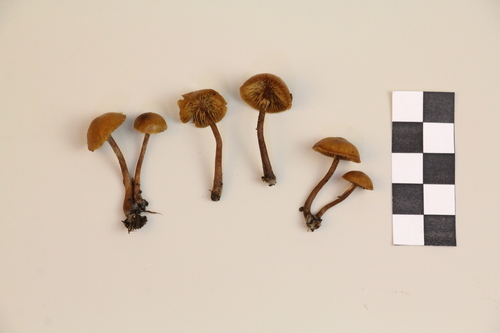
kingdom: Fungi
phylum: Basidiomycota
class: Agaricomycetes
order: Agaricales
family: Strophariaceae
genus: Pholiota
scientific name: Pholiota lignicola
